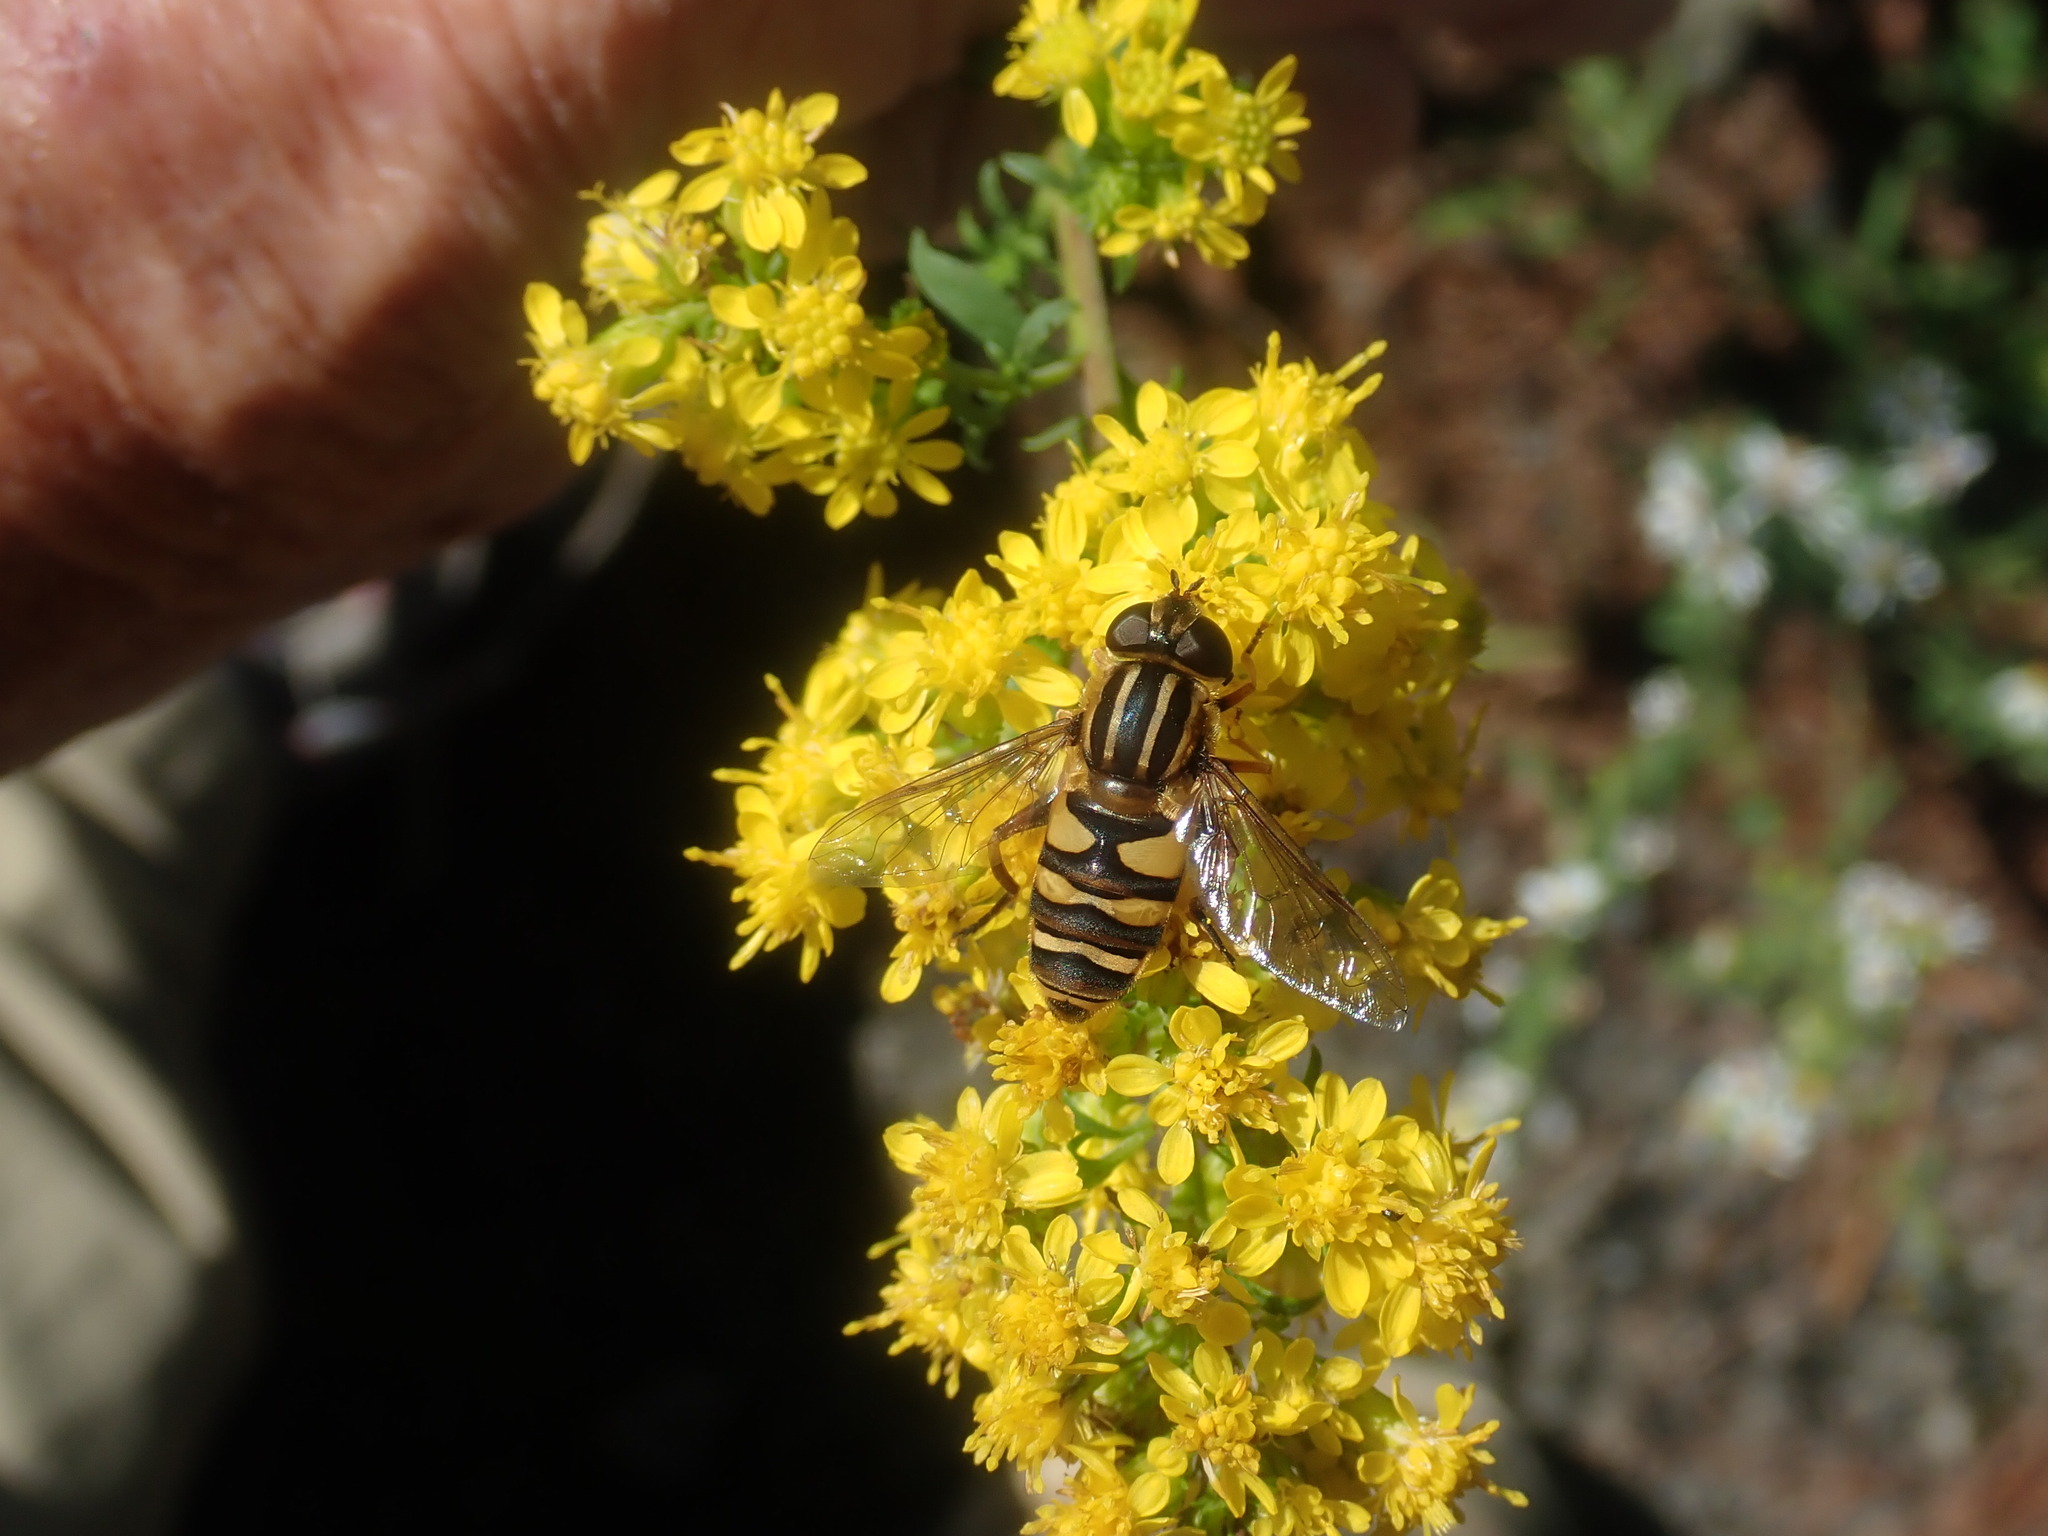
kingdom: Animalia
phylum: Arthropoda
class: Insecta
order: Diptera
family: Syrphidae
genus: Helophilus
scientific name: Helophilus fasciatus
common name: Narrow-headed marsh fly
